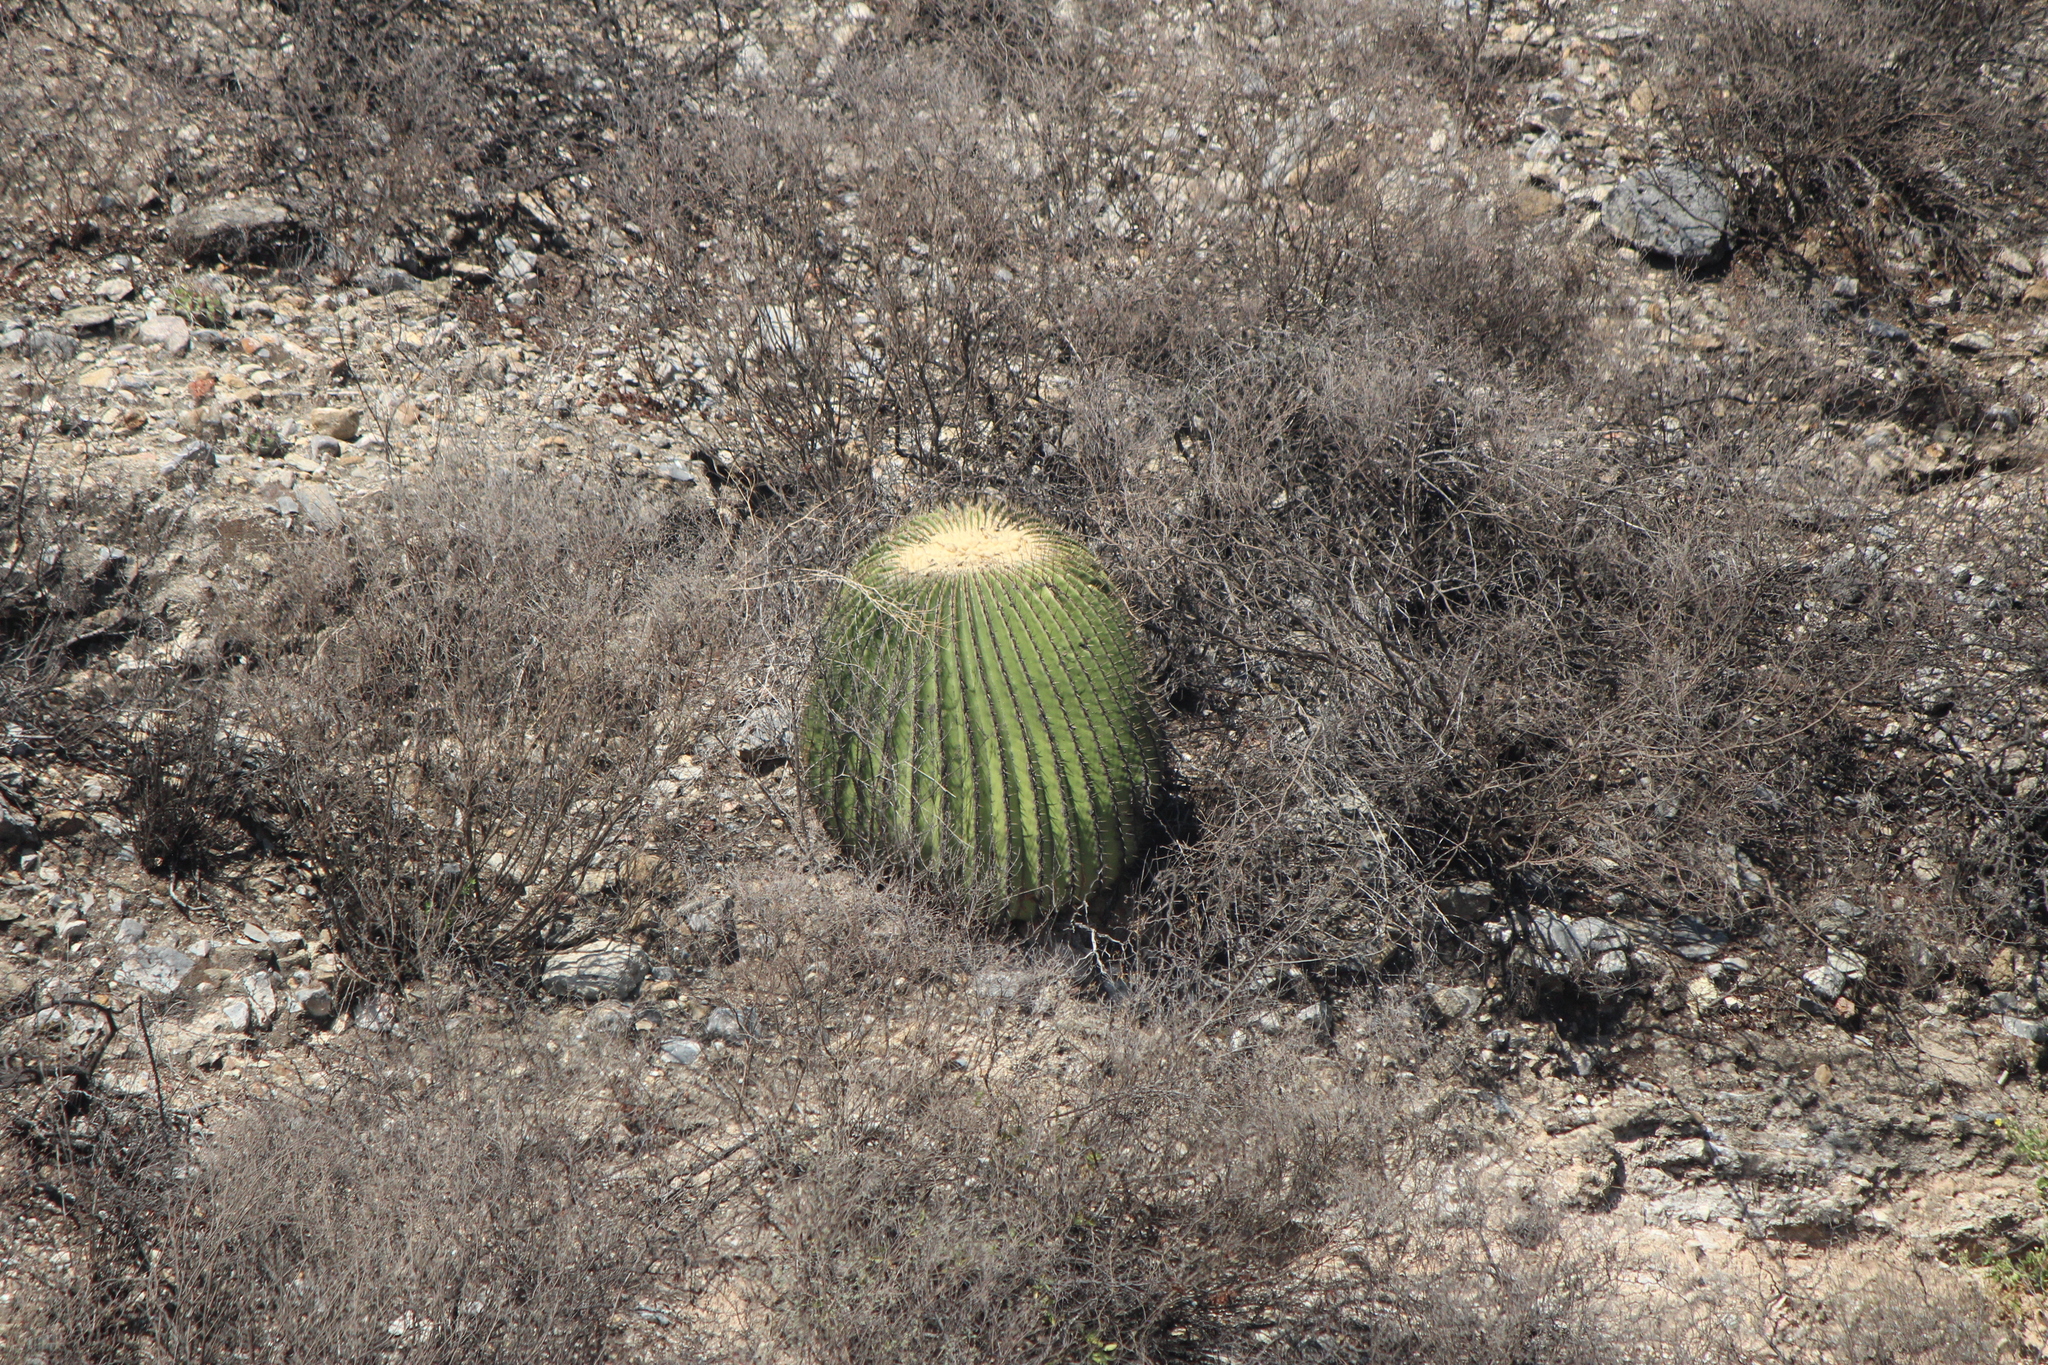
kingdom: Plantae
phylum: Tracheophyta
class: Magnoliopsida
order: Caryophyllales
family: Cactaceae
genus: Echinocactus
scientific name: Echinocactus platyacanthus
